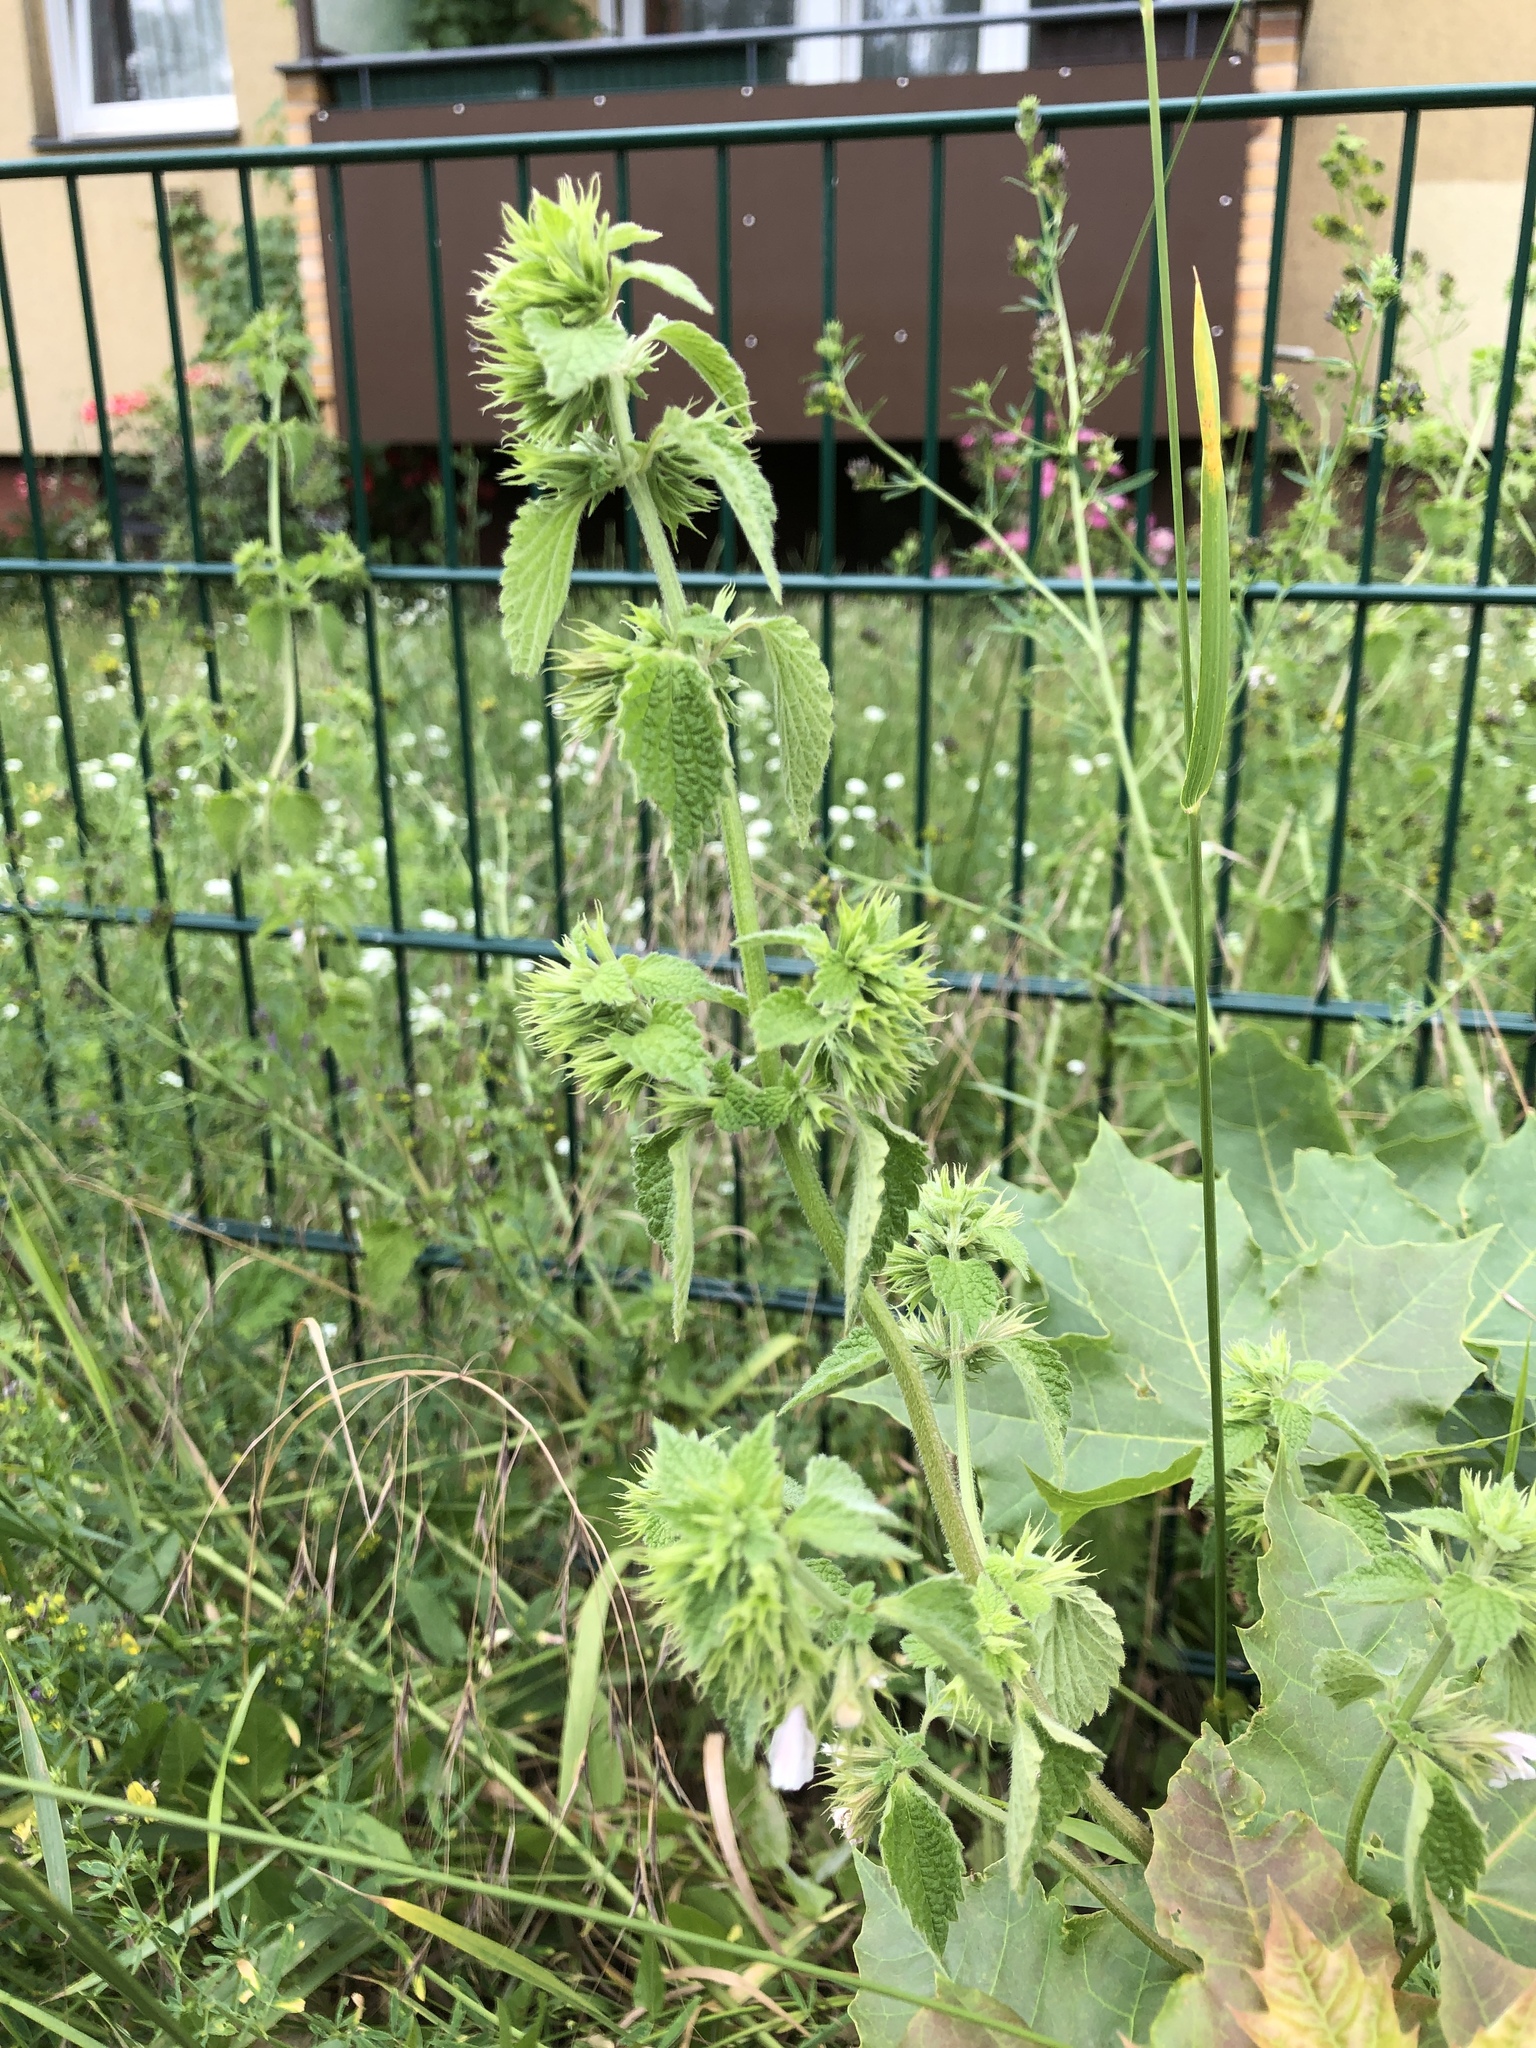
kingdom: Plantae
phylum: Tracheophyta
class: Magnoliopsida
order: Lamiales
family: Lamiaceae
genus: Ballota
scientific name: Ballota nigra
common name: Black horehound
